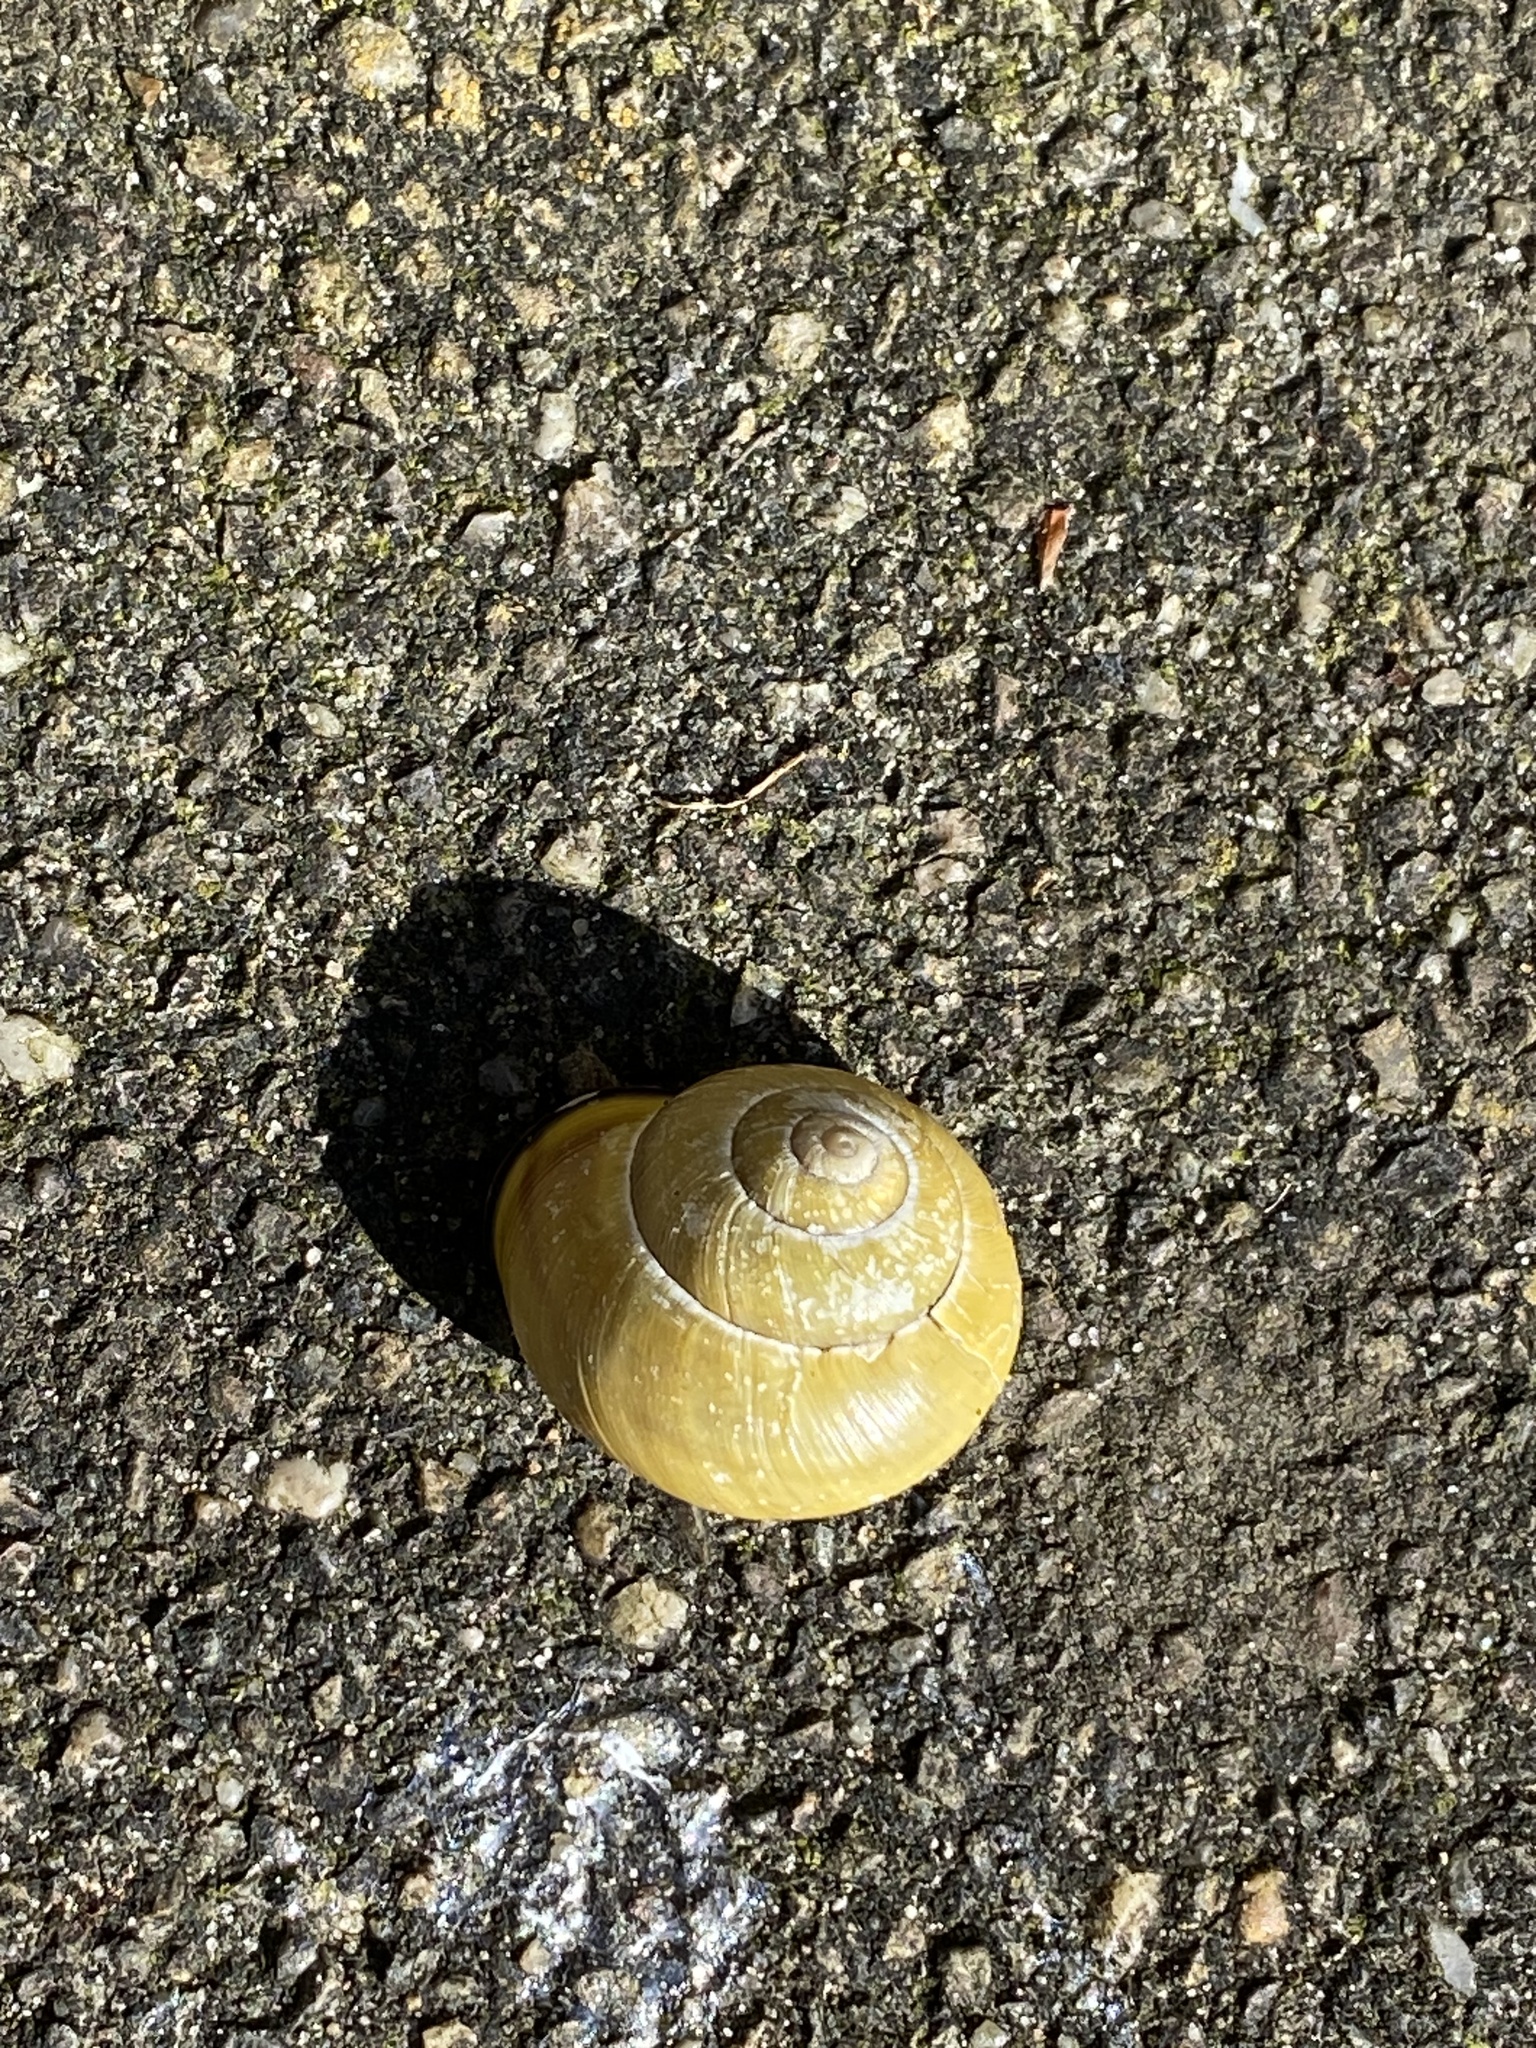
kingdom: Animalia
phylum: Mollusca
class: Gastropoda
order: Stylommatophora
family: Helicidae
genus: Cepaea
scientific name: Cepaea nemoralis
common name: Grovesnail
